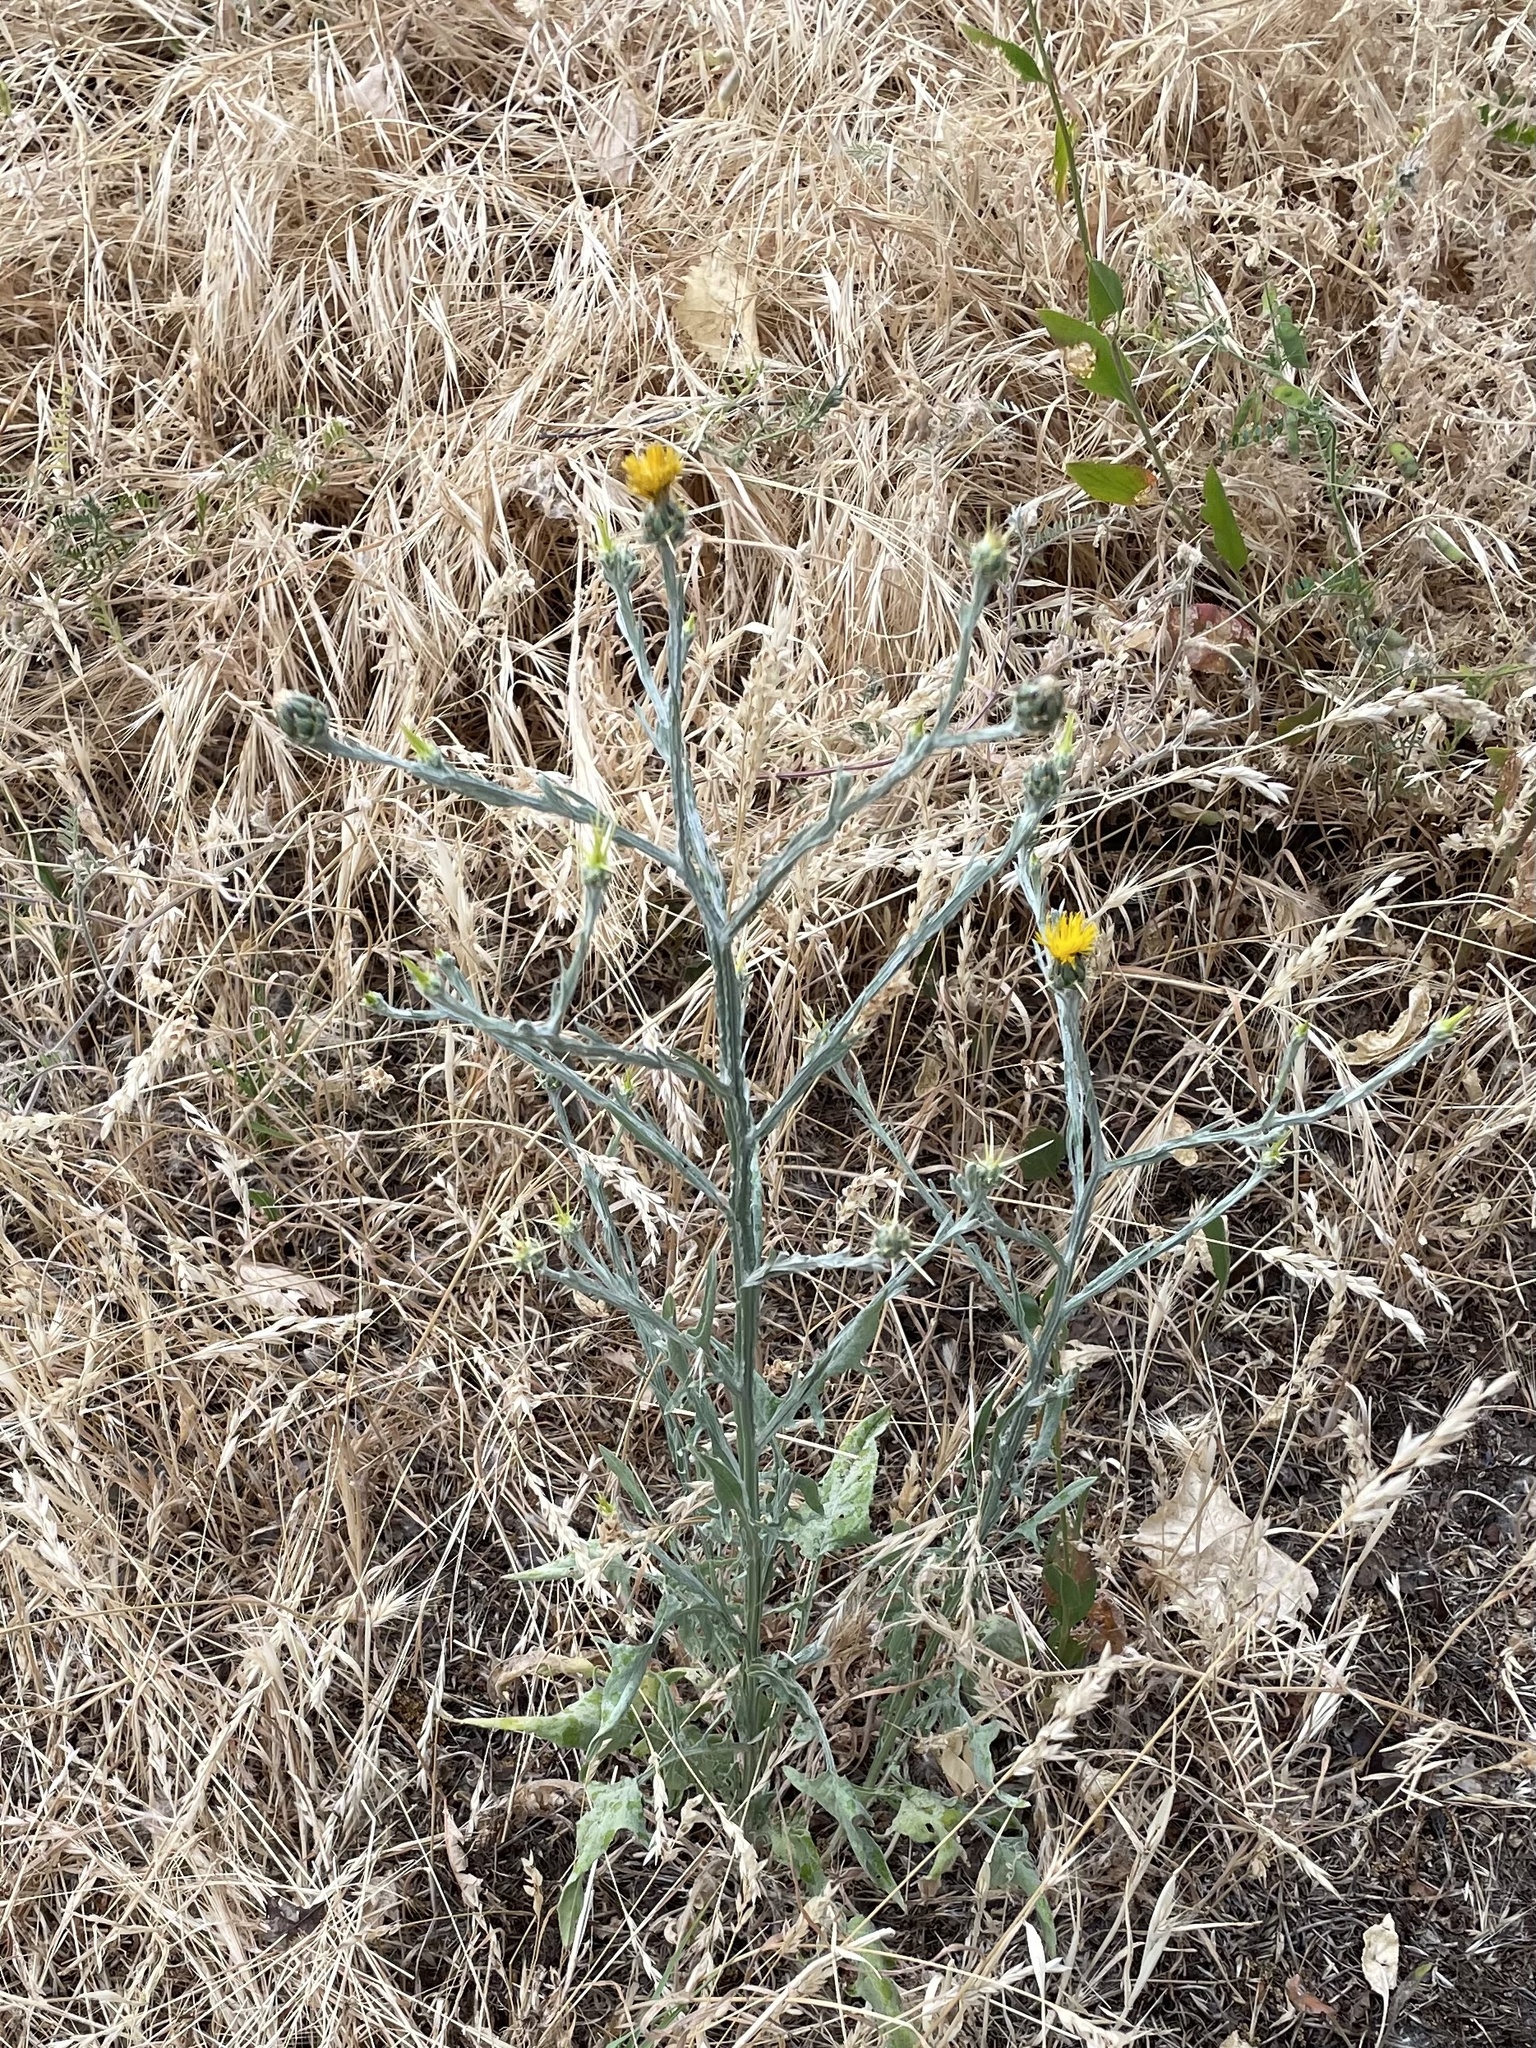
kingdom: Plantae
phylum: Tracheophyta
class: Magnoliopsida
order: Asterales
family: Asteraceae
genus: Centaurea
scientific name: Centaurea solstitialis
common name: Yellow star-thistle
